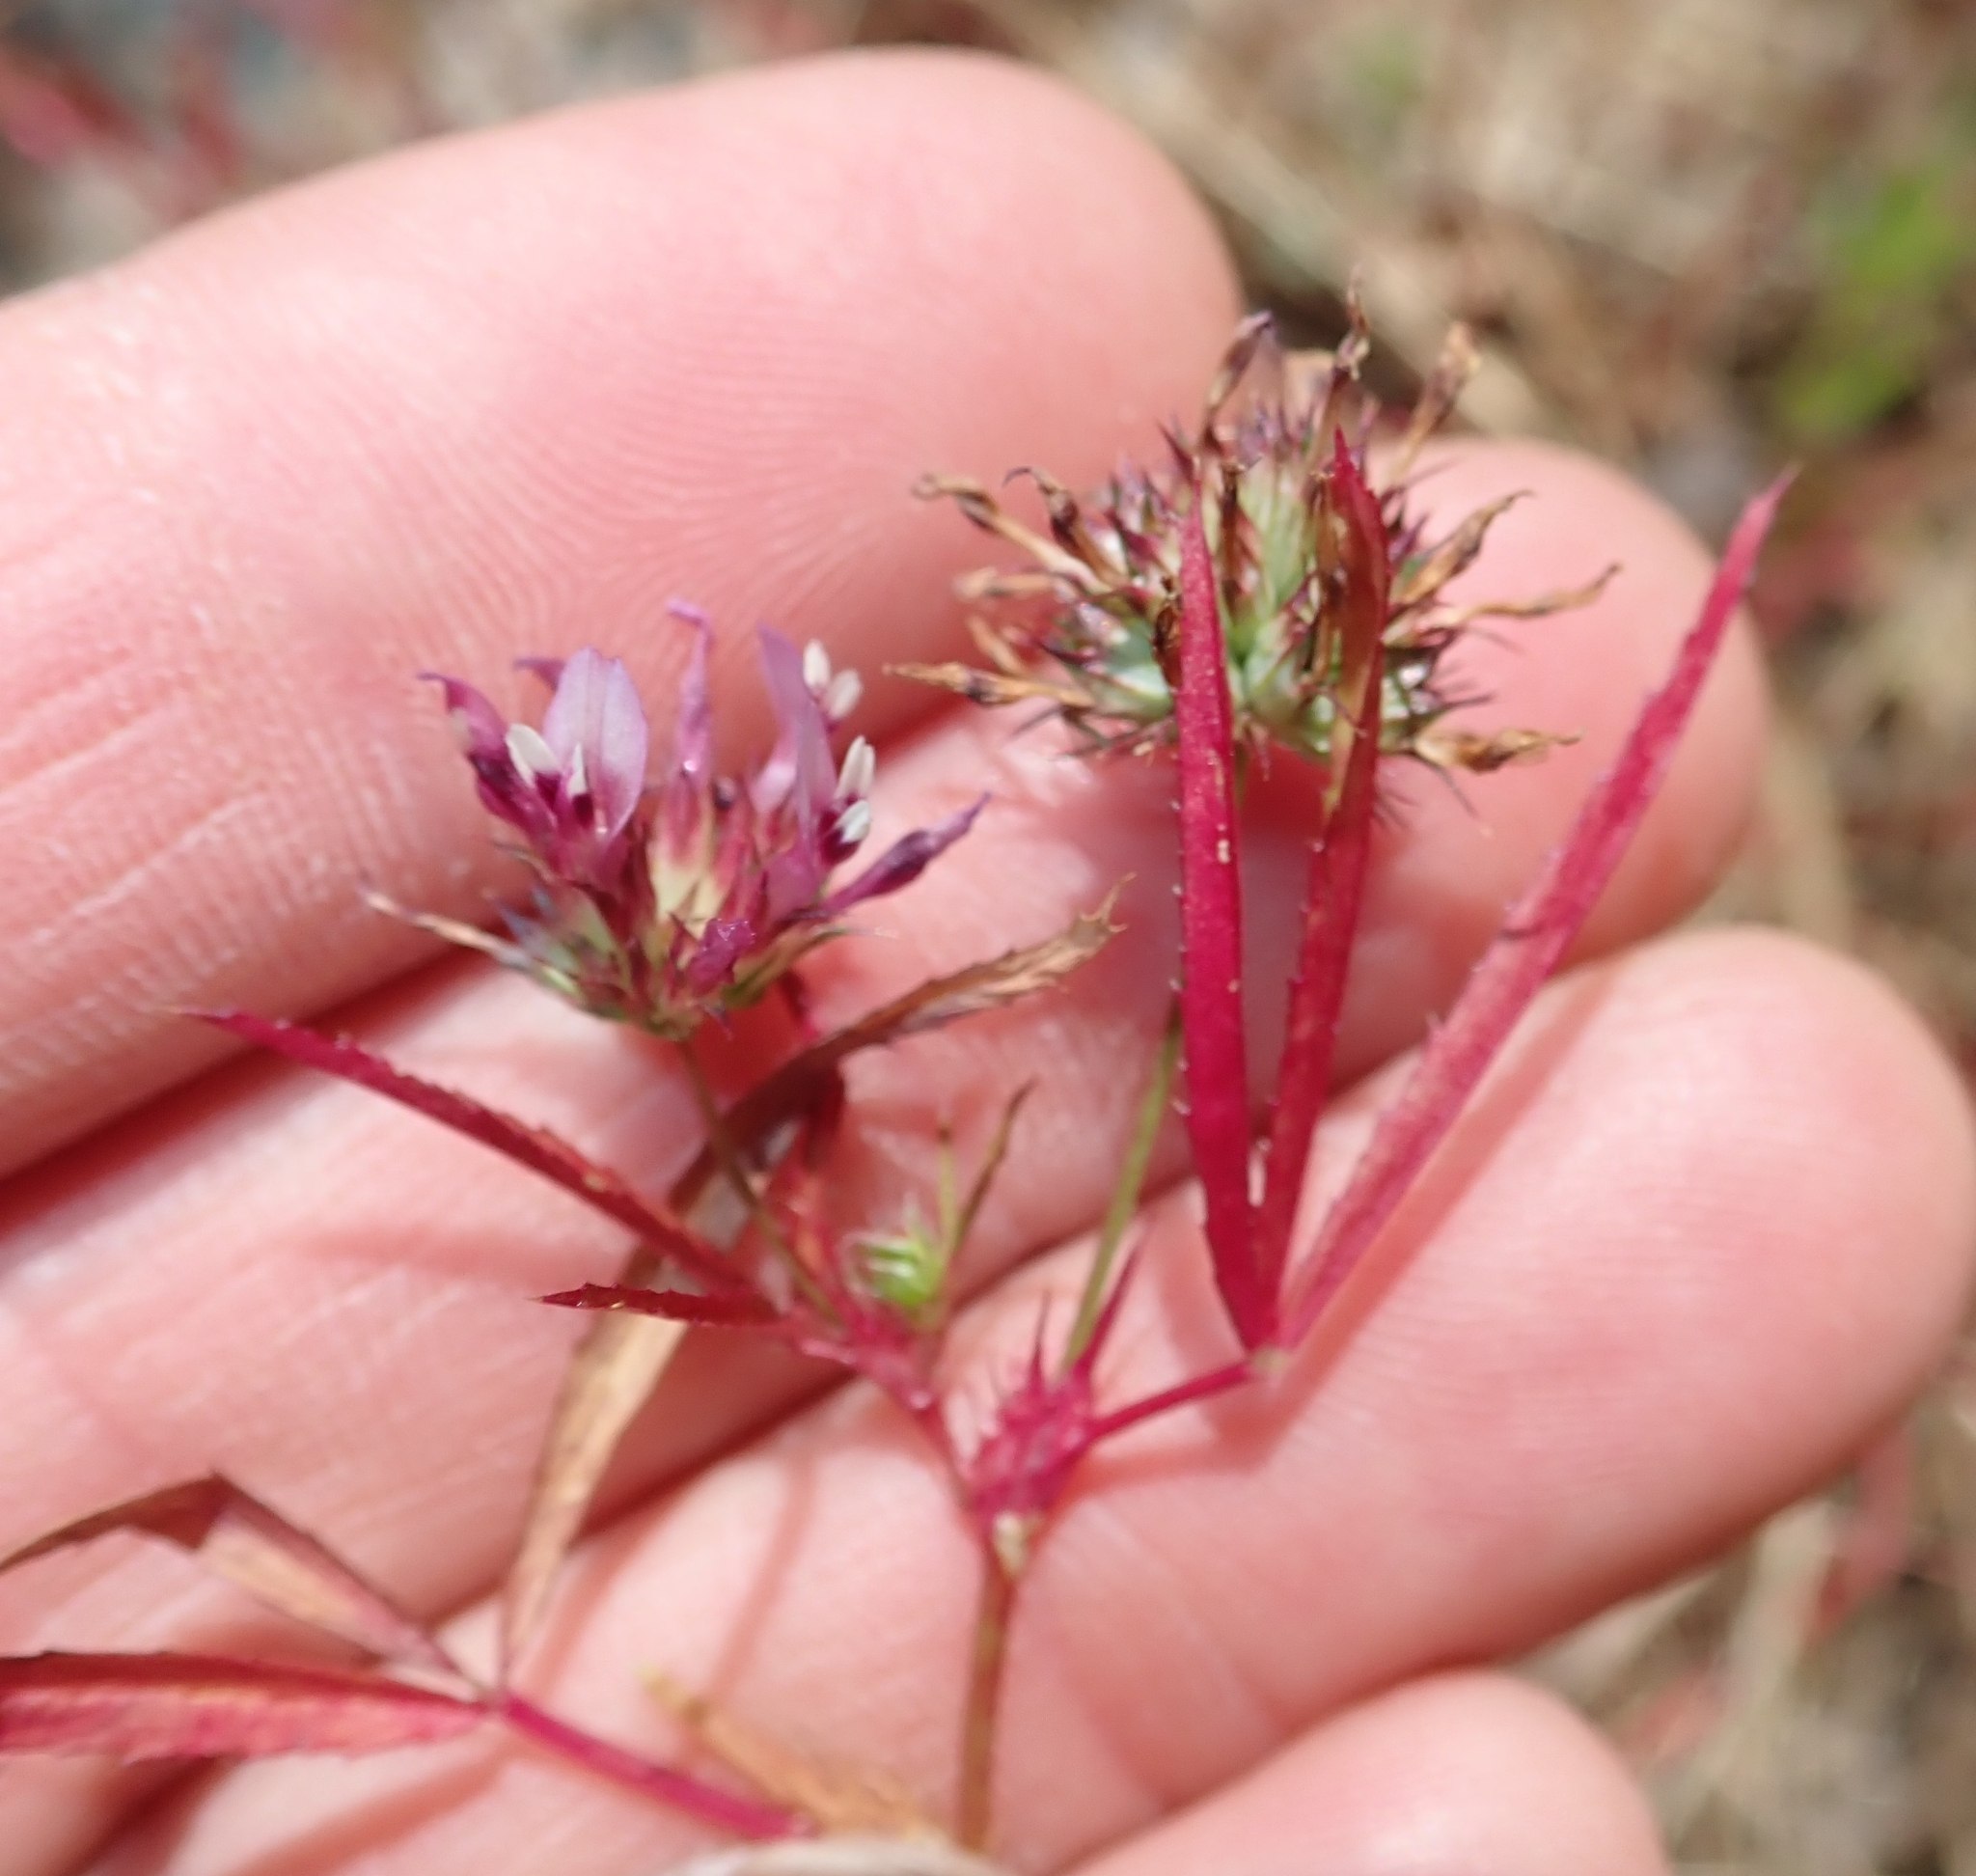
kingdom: Plantae
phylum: Tracheophyta
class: Magnoliopsida
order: Fabales
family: Fabaceae
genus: Trifolium
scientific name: Trifolium willdenovii
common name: Tomcat clover
